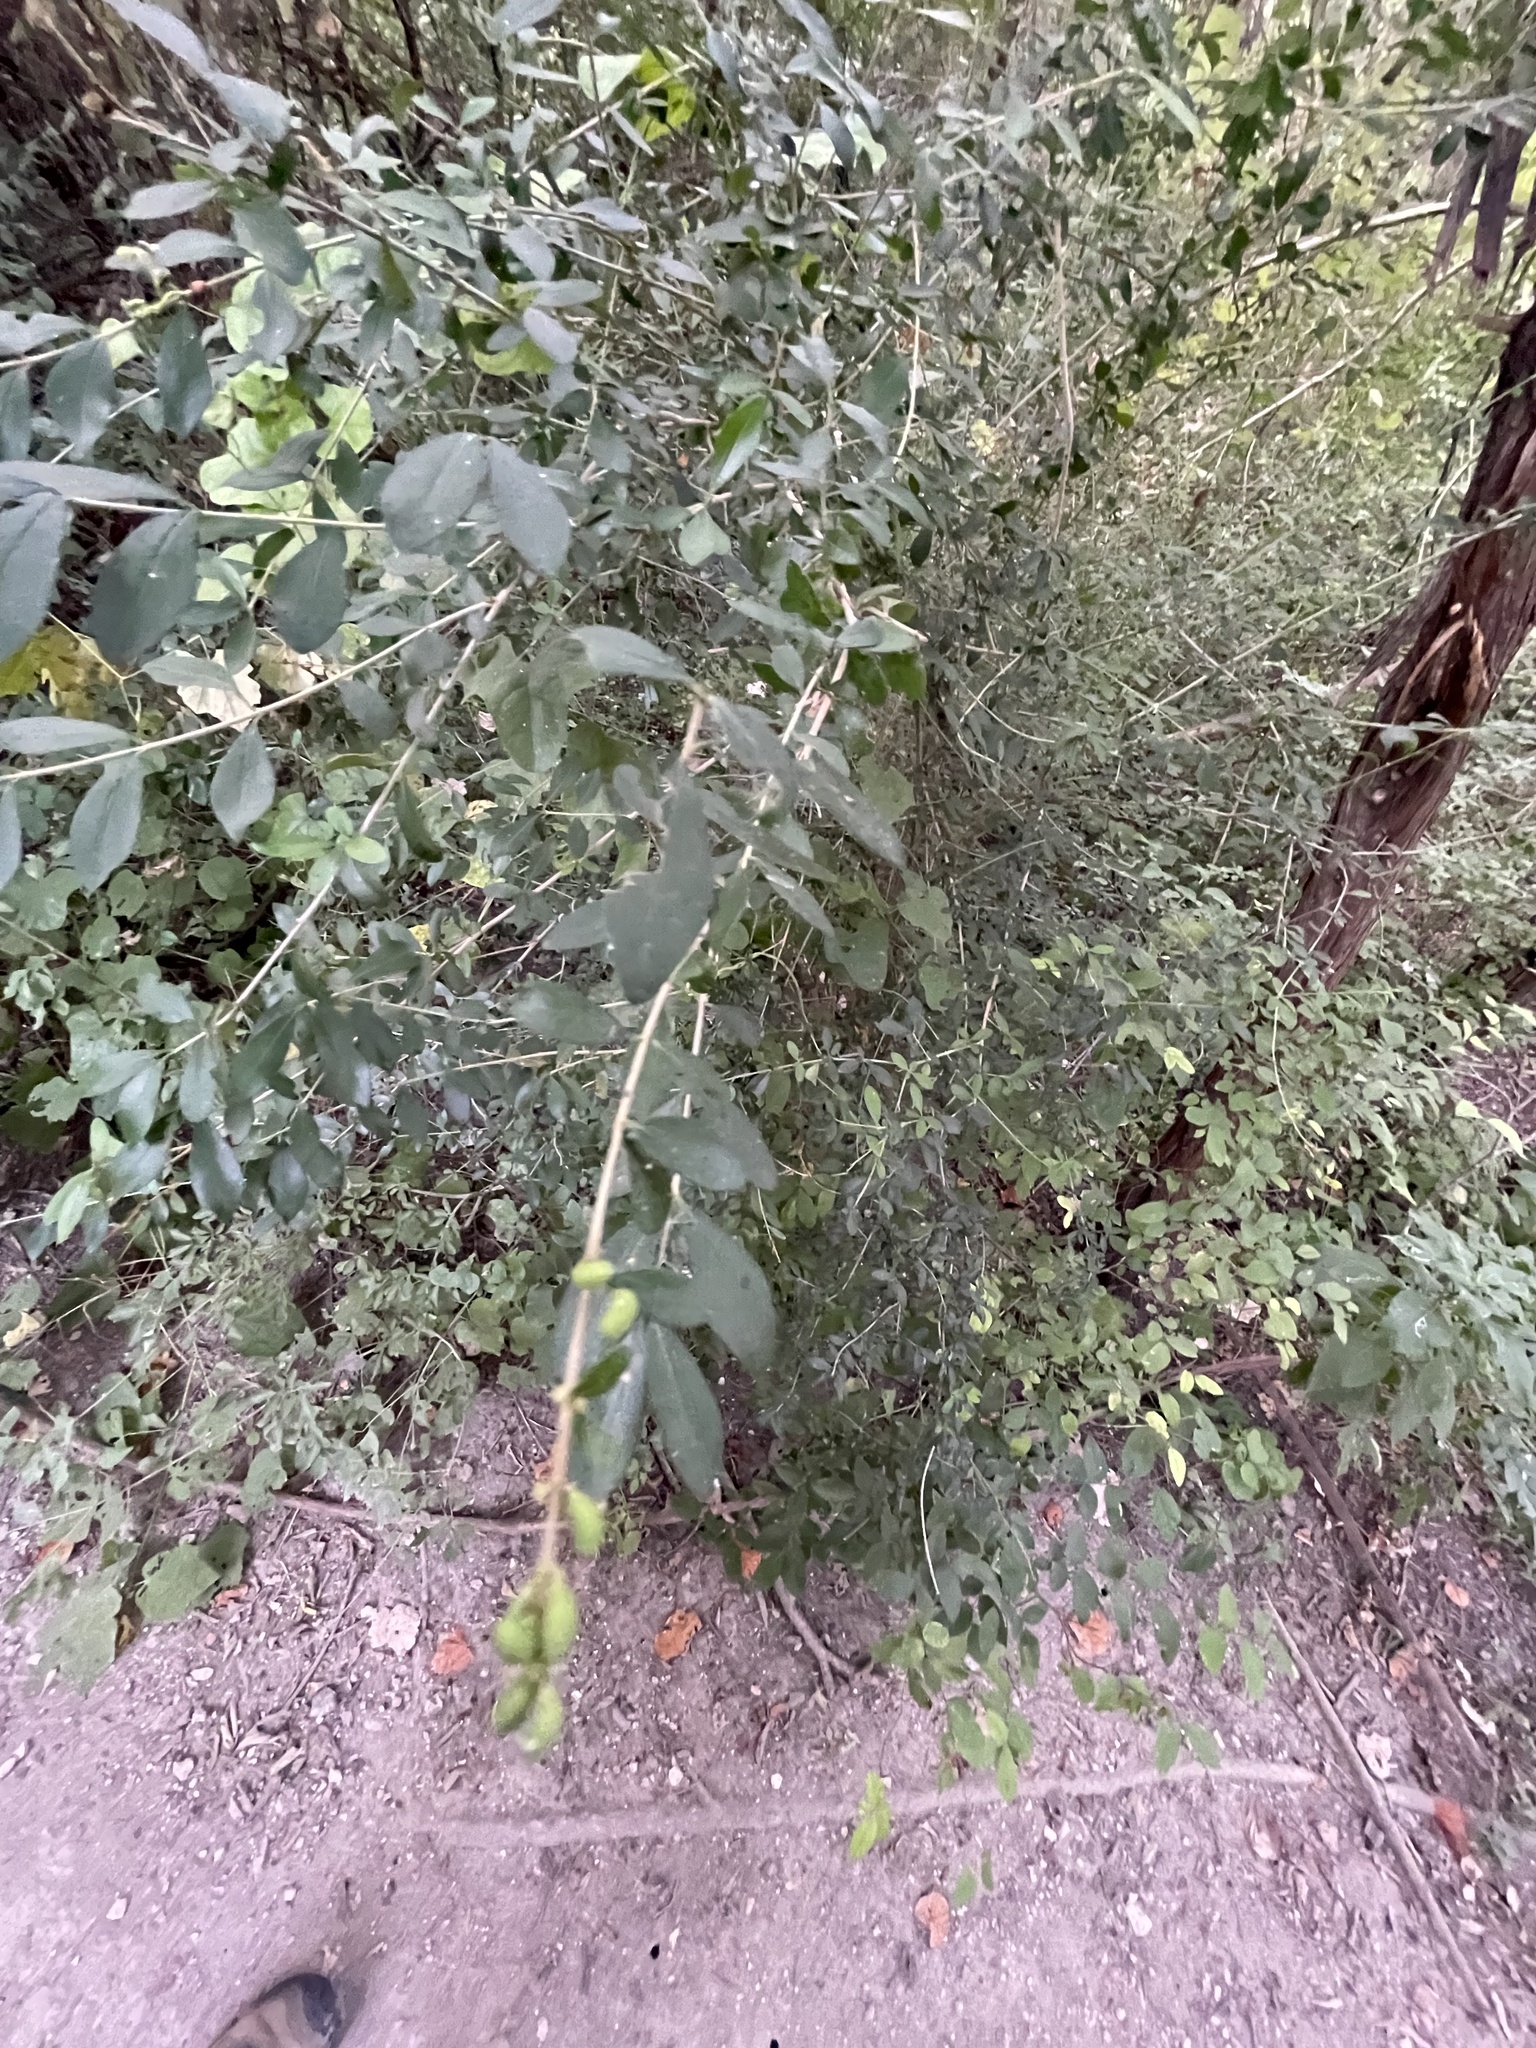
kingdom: Plantae
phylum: Tracheophyta
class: Magnoliopsida
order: Lamiales
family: Oleaceae
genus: Ligustrum
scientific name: Ligustrum quihoui
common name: Waxyleaf privet
